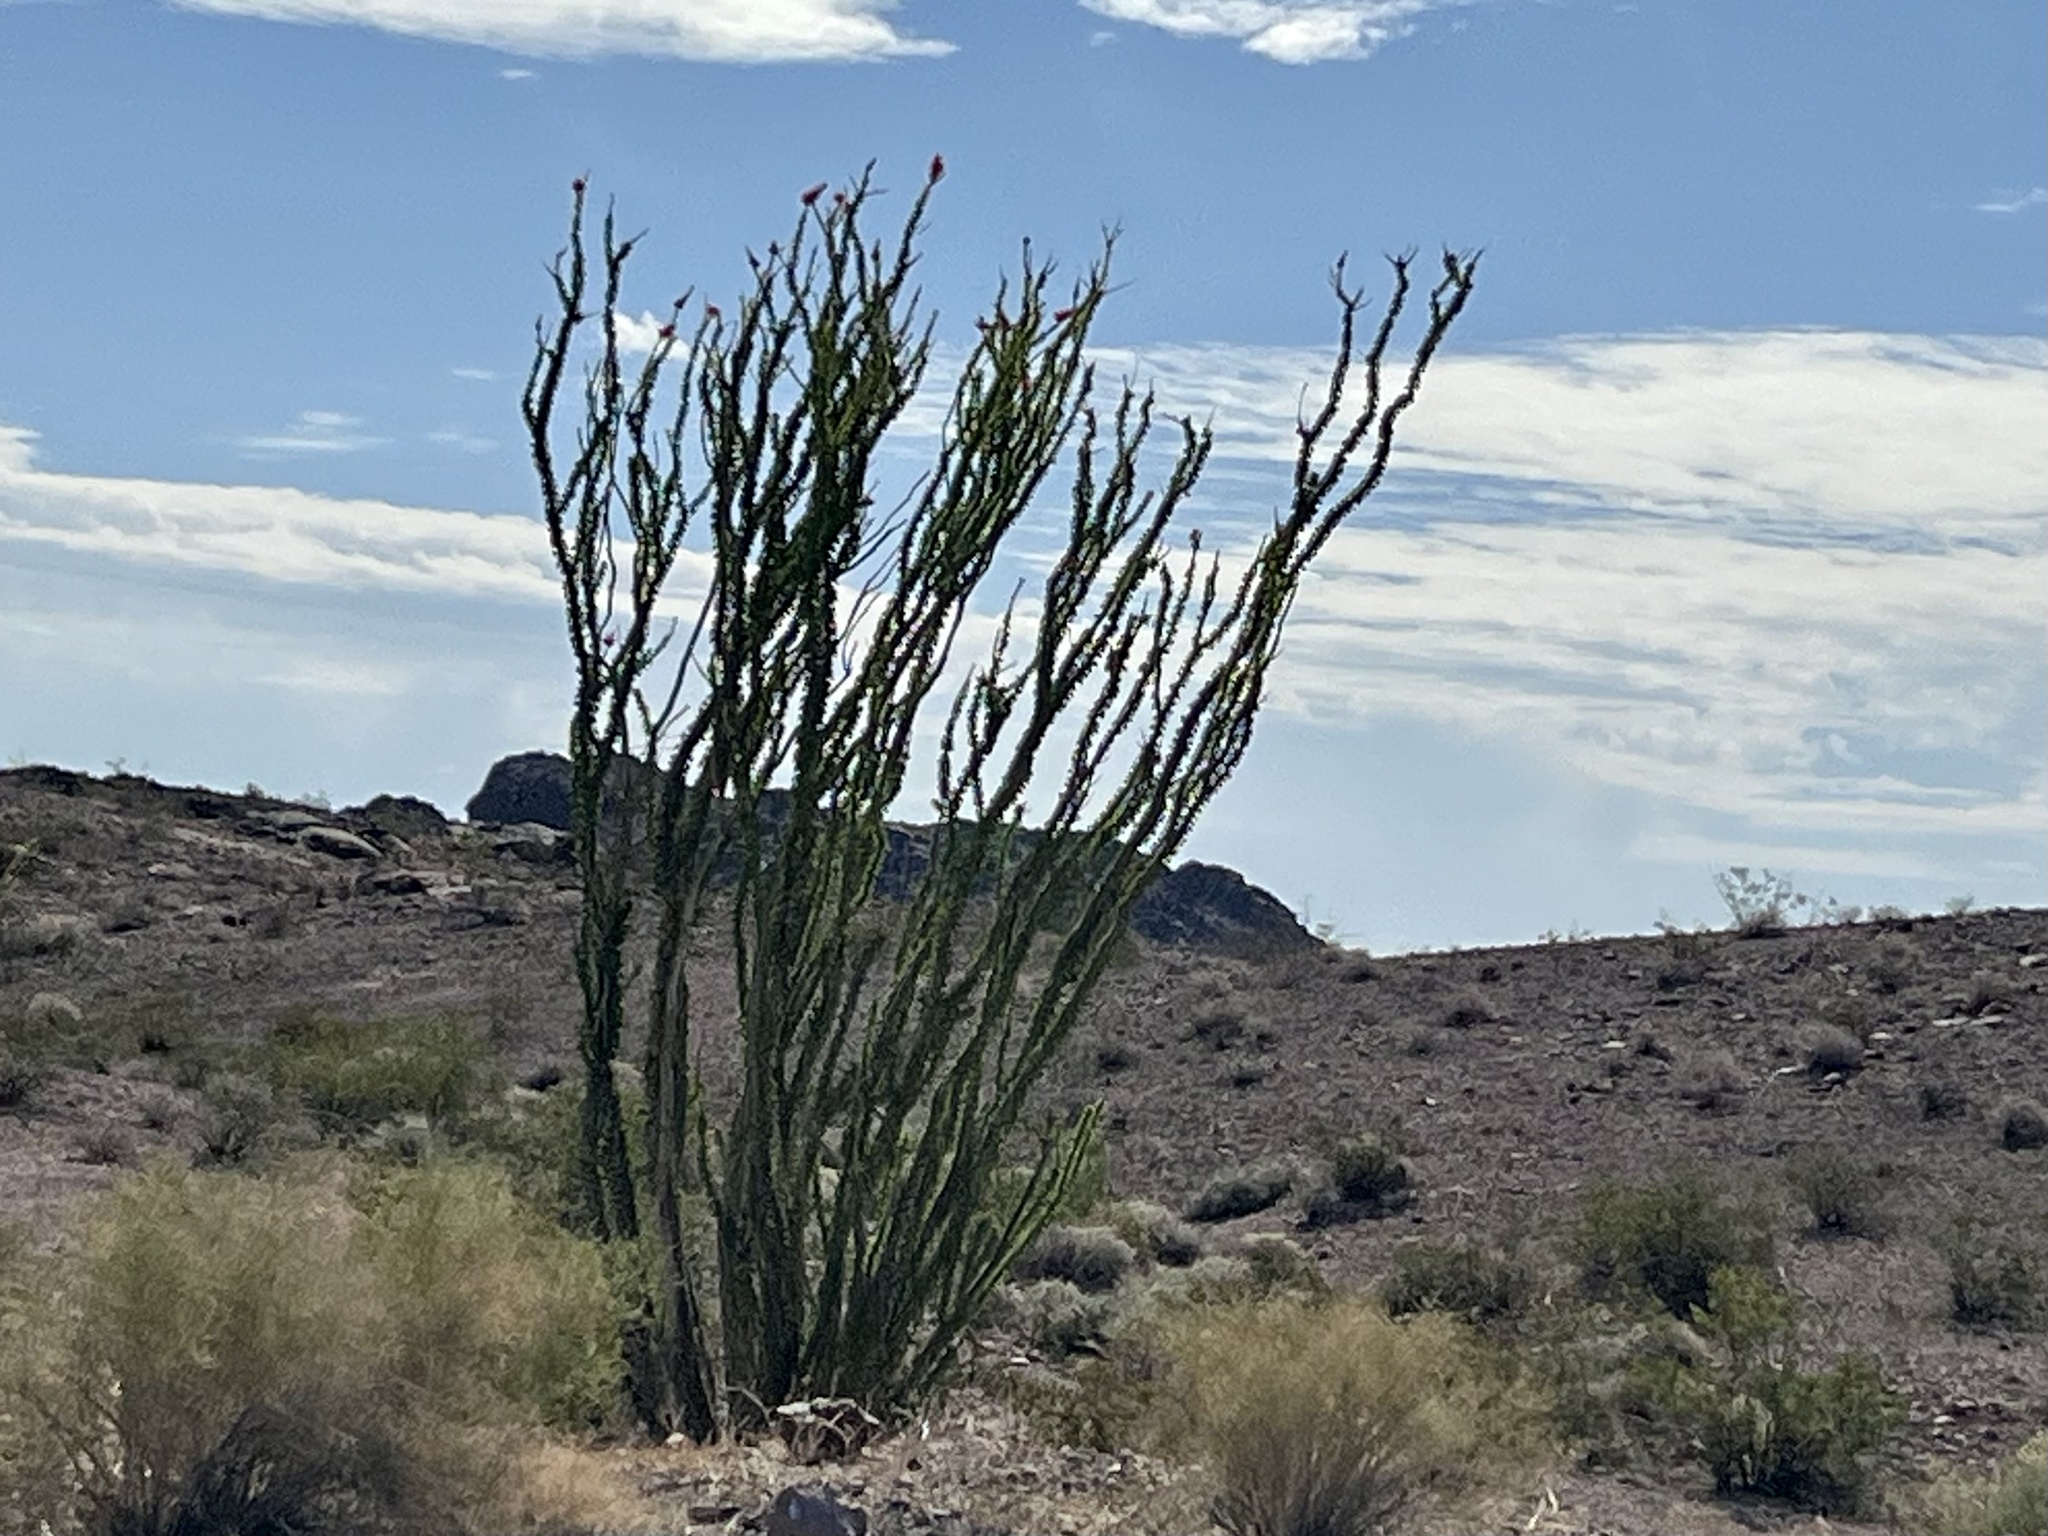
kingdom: Plantae
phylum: Tracheophyta
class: Magnoliopsida
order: Ericales
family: Fouquieriaceae
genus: Fouquieria
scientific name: Fouquieria splendens
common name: Vine-cactus
